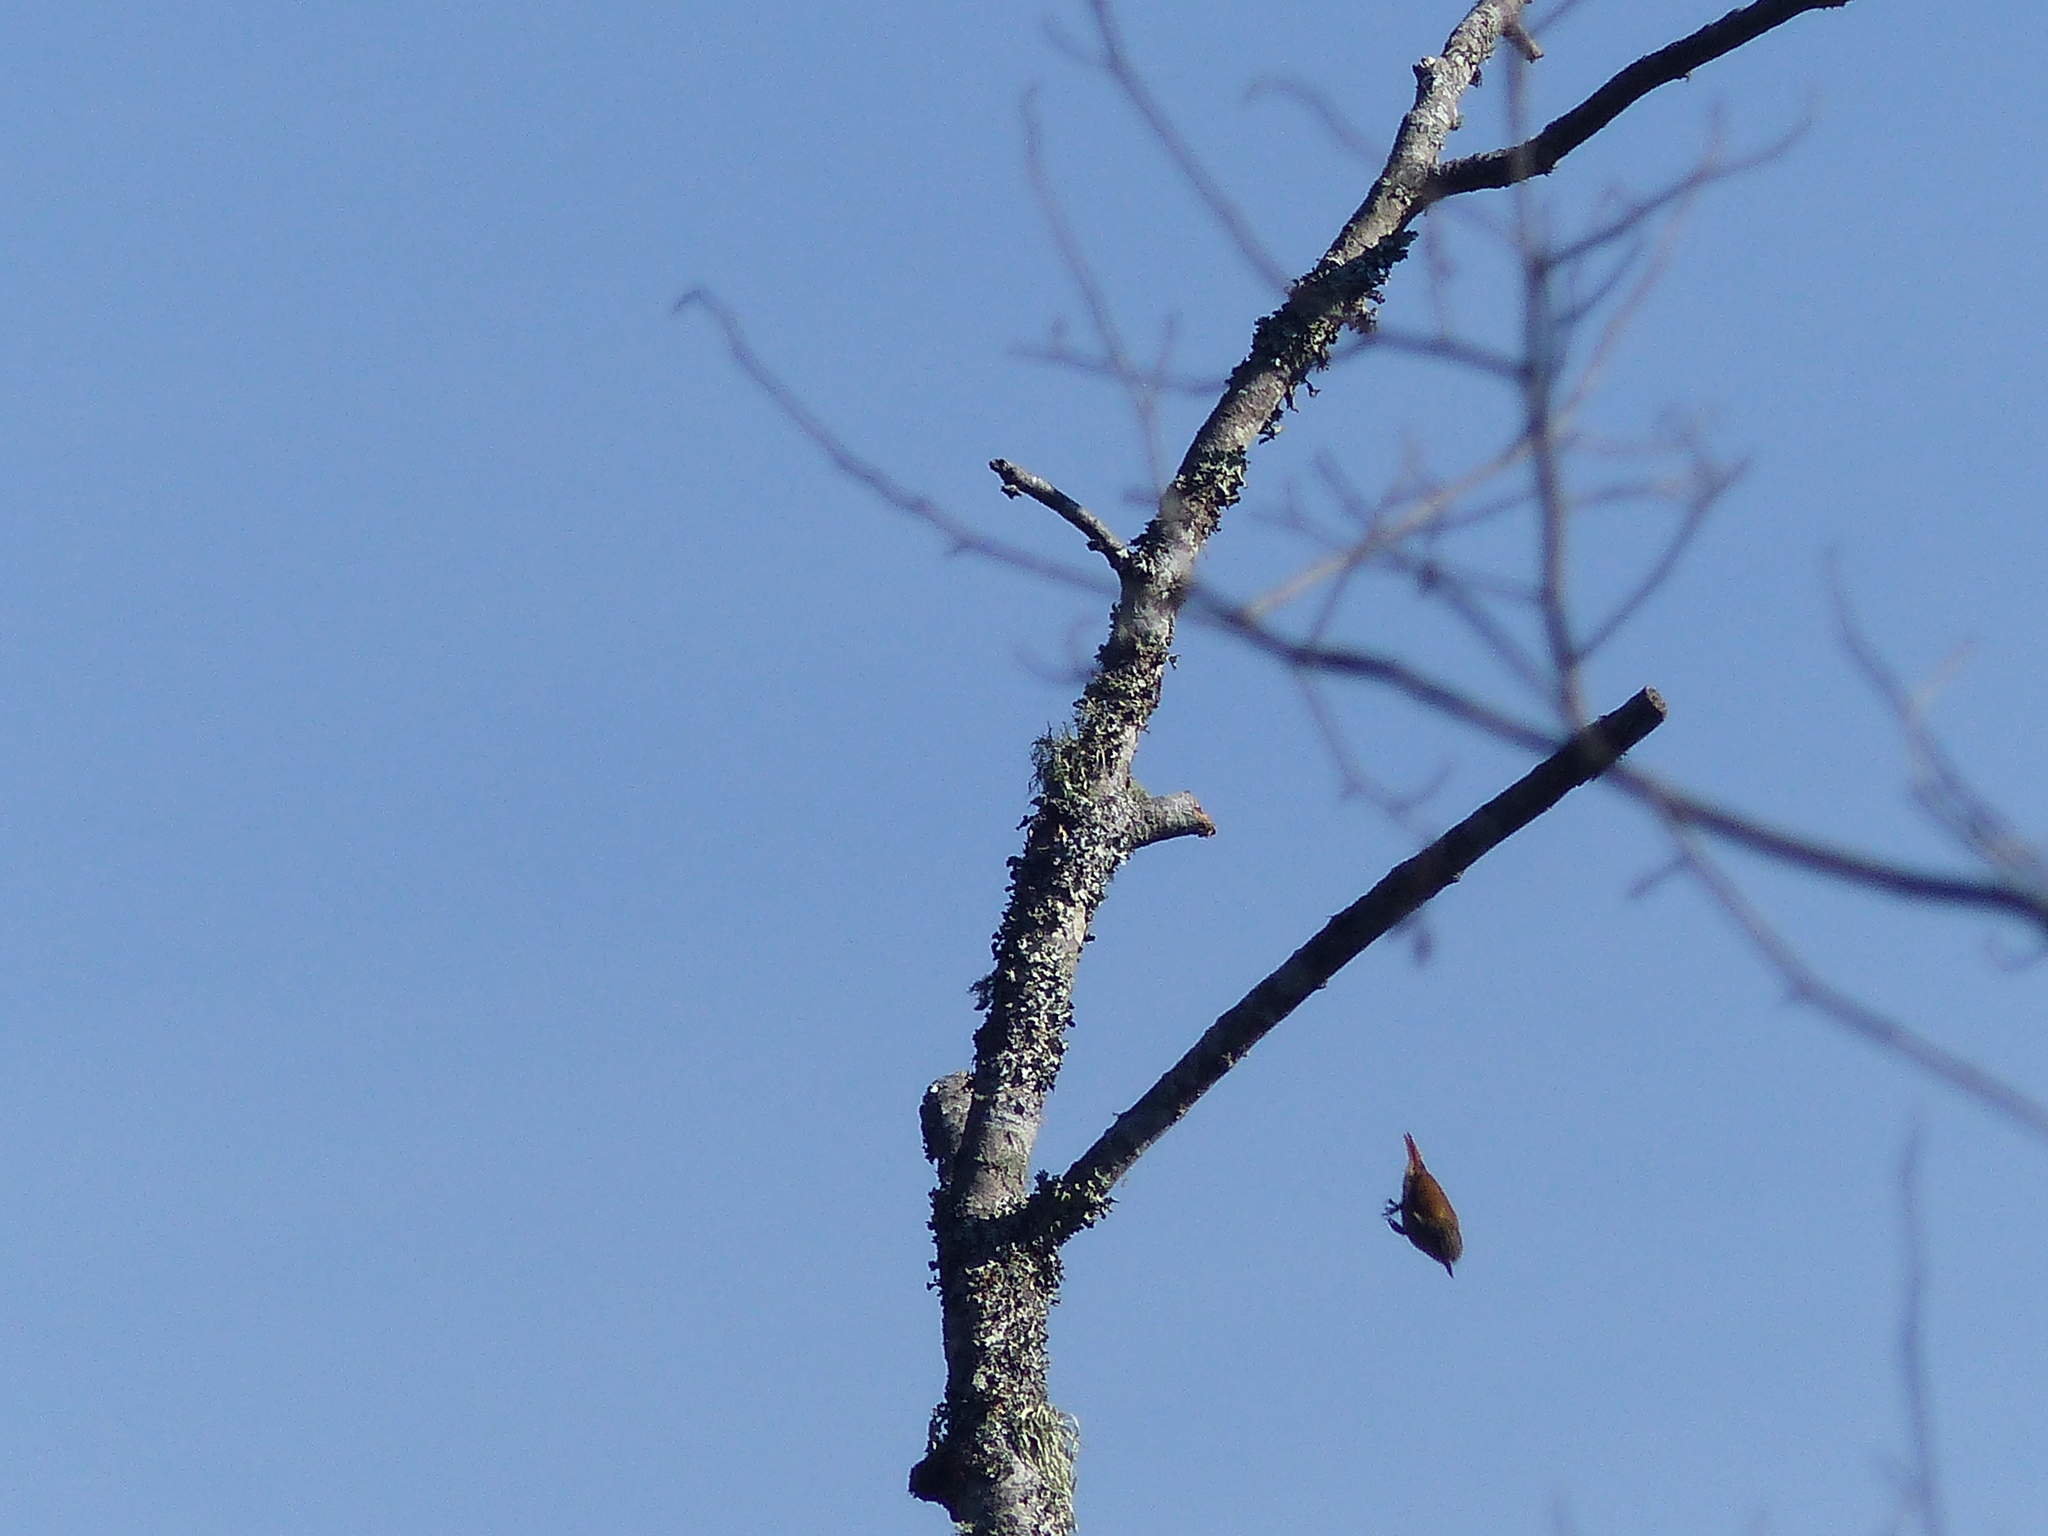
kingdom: Animalia
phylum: Chordata
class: Aves
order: Passeriformes
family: Furnariidae
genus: Xenops
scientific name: Xenops rutilans
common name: Streaked xenops
